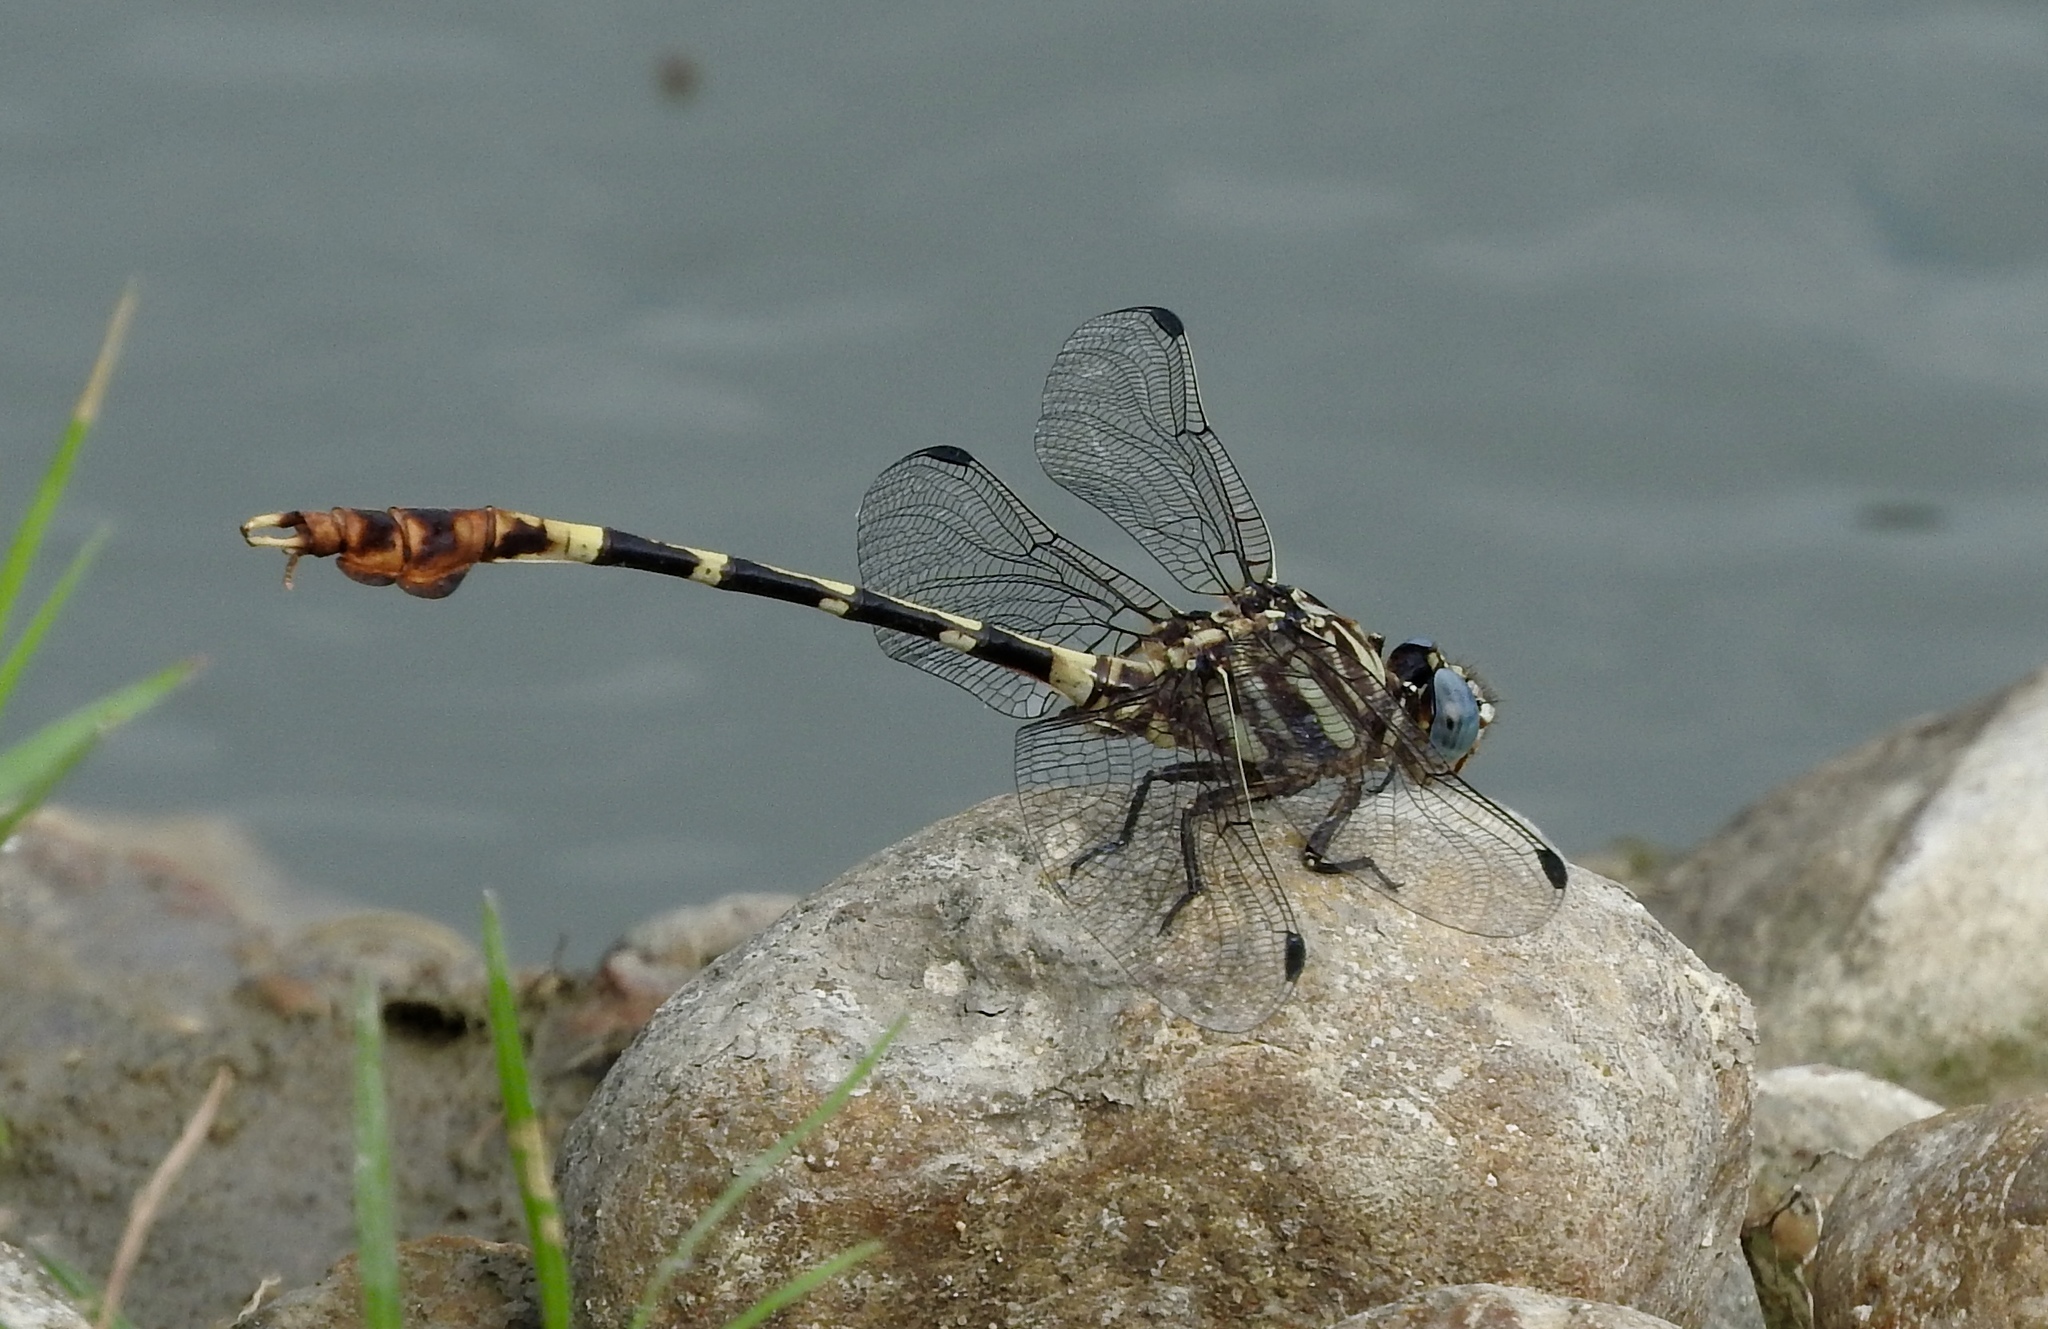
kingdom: Animalia
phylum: Arthropoda
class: Insecta
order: Odonata
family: Gomphidae
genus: Phyllogomphoides
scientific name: Phyllogomphoides albrighti
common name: Five-striped leaftail
